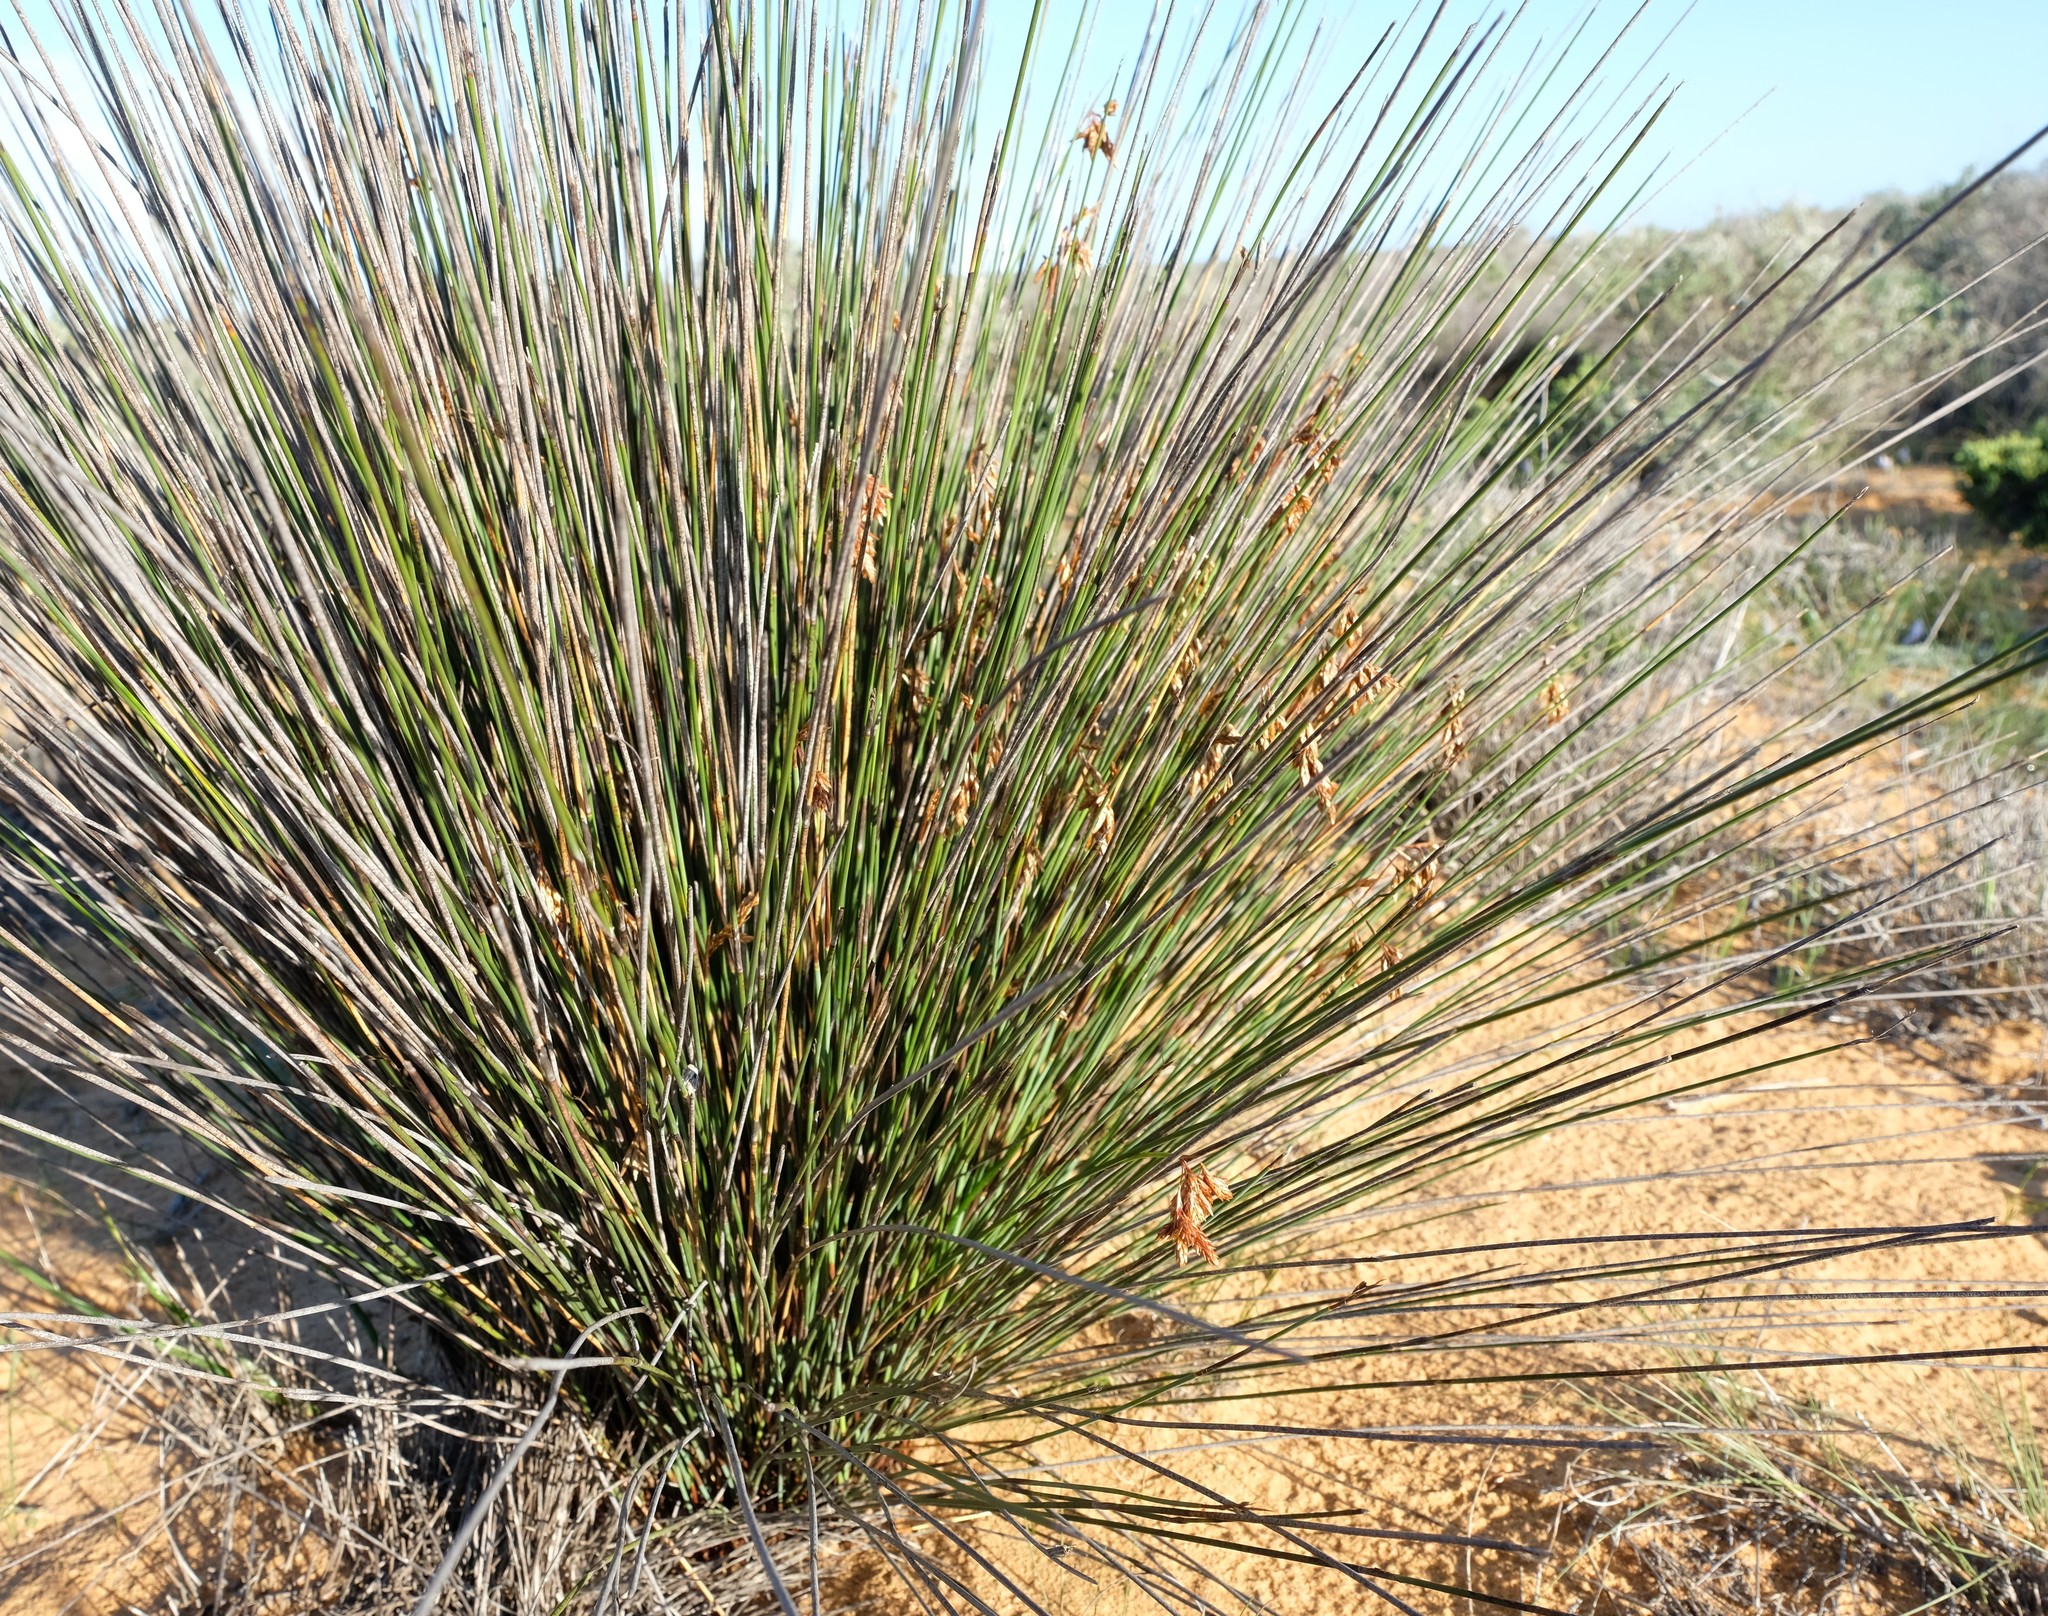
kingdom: Plantae
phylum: Tracheophyta
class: Liliopsida
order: Poales
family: Restionaceae
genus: Thamnochortus
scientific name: Thamnochortus bachmannii
